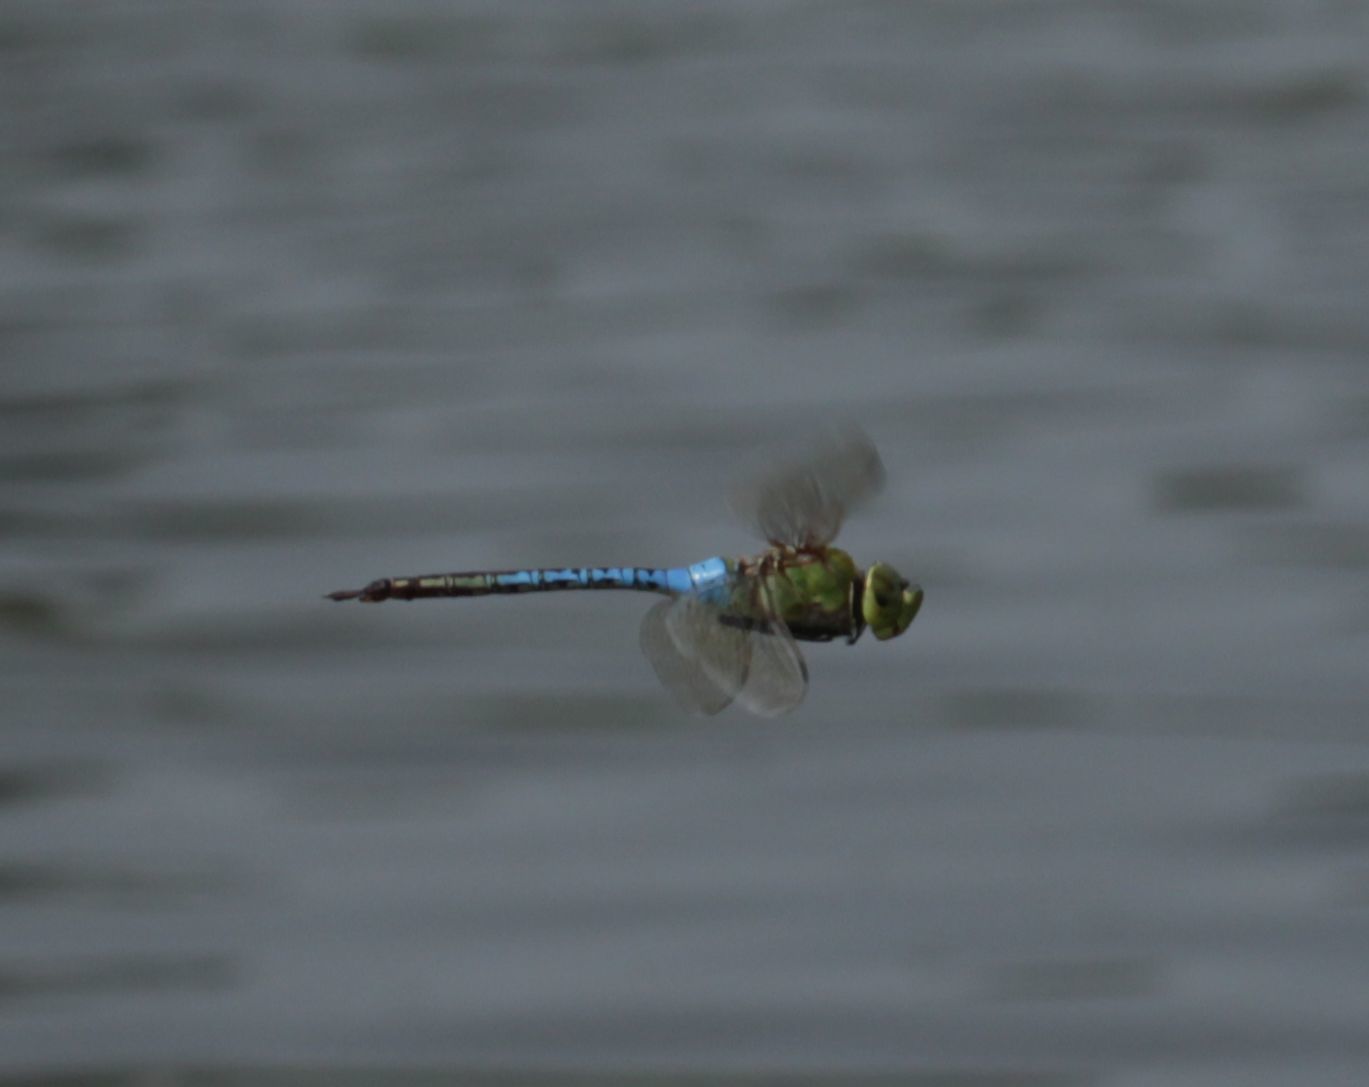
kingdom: Animalia
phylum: Arthropoda
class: Insecta
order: Odonata
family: Aeshnidae
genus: Anax
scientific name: Anax junius
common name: Common green darner
